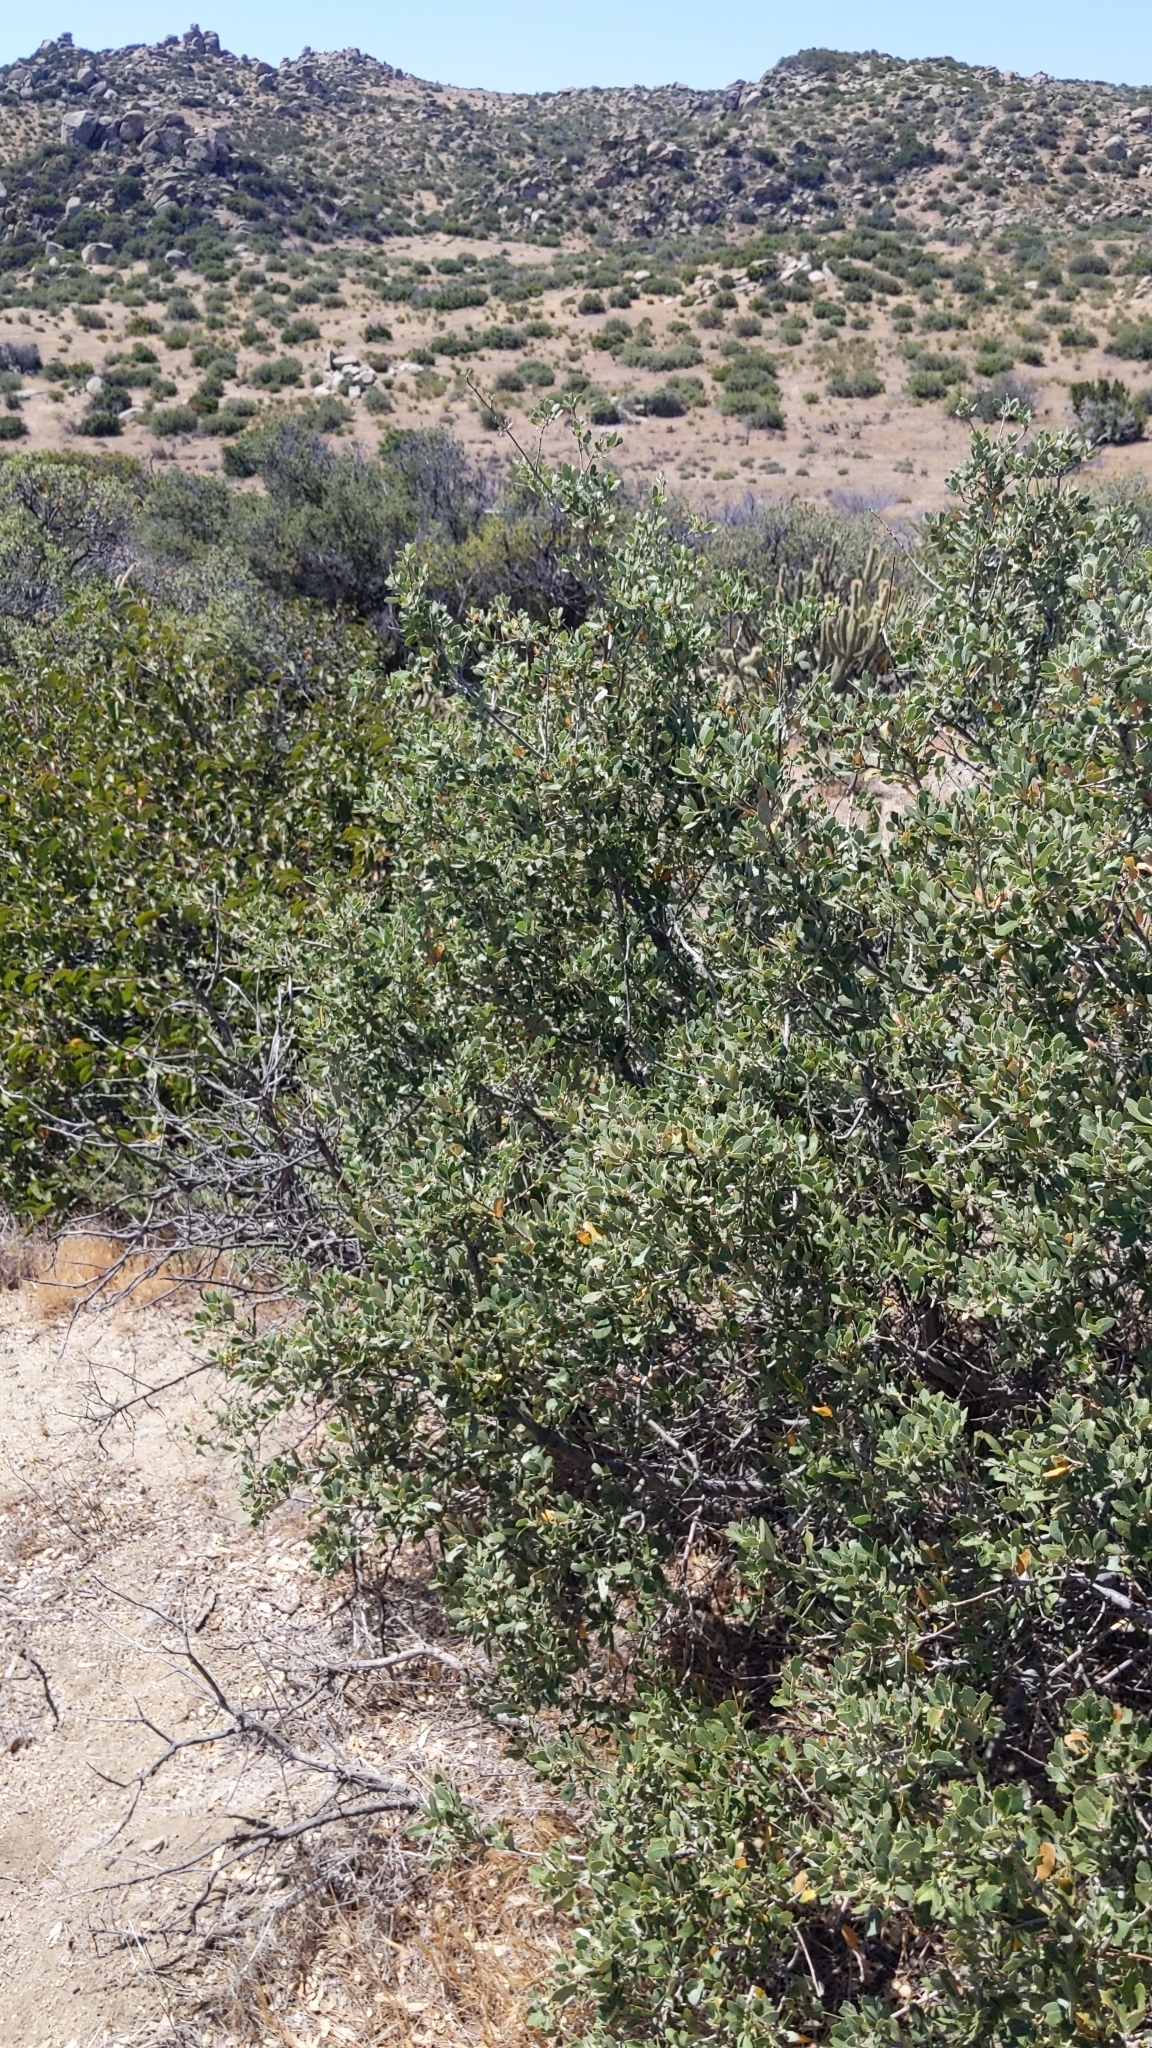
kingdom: Plantae
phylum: Tracheophyta
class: Magnoliopsida
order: Fagales
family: Fagaceae
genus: Quercus
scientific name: Quercus cornelius-mulleri
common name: Muller oak
